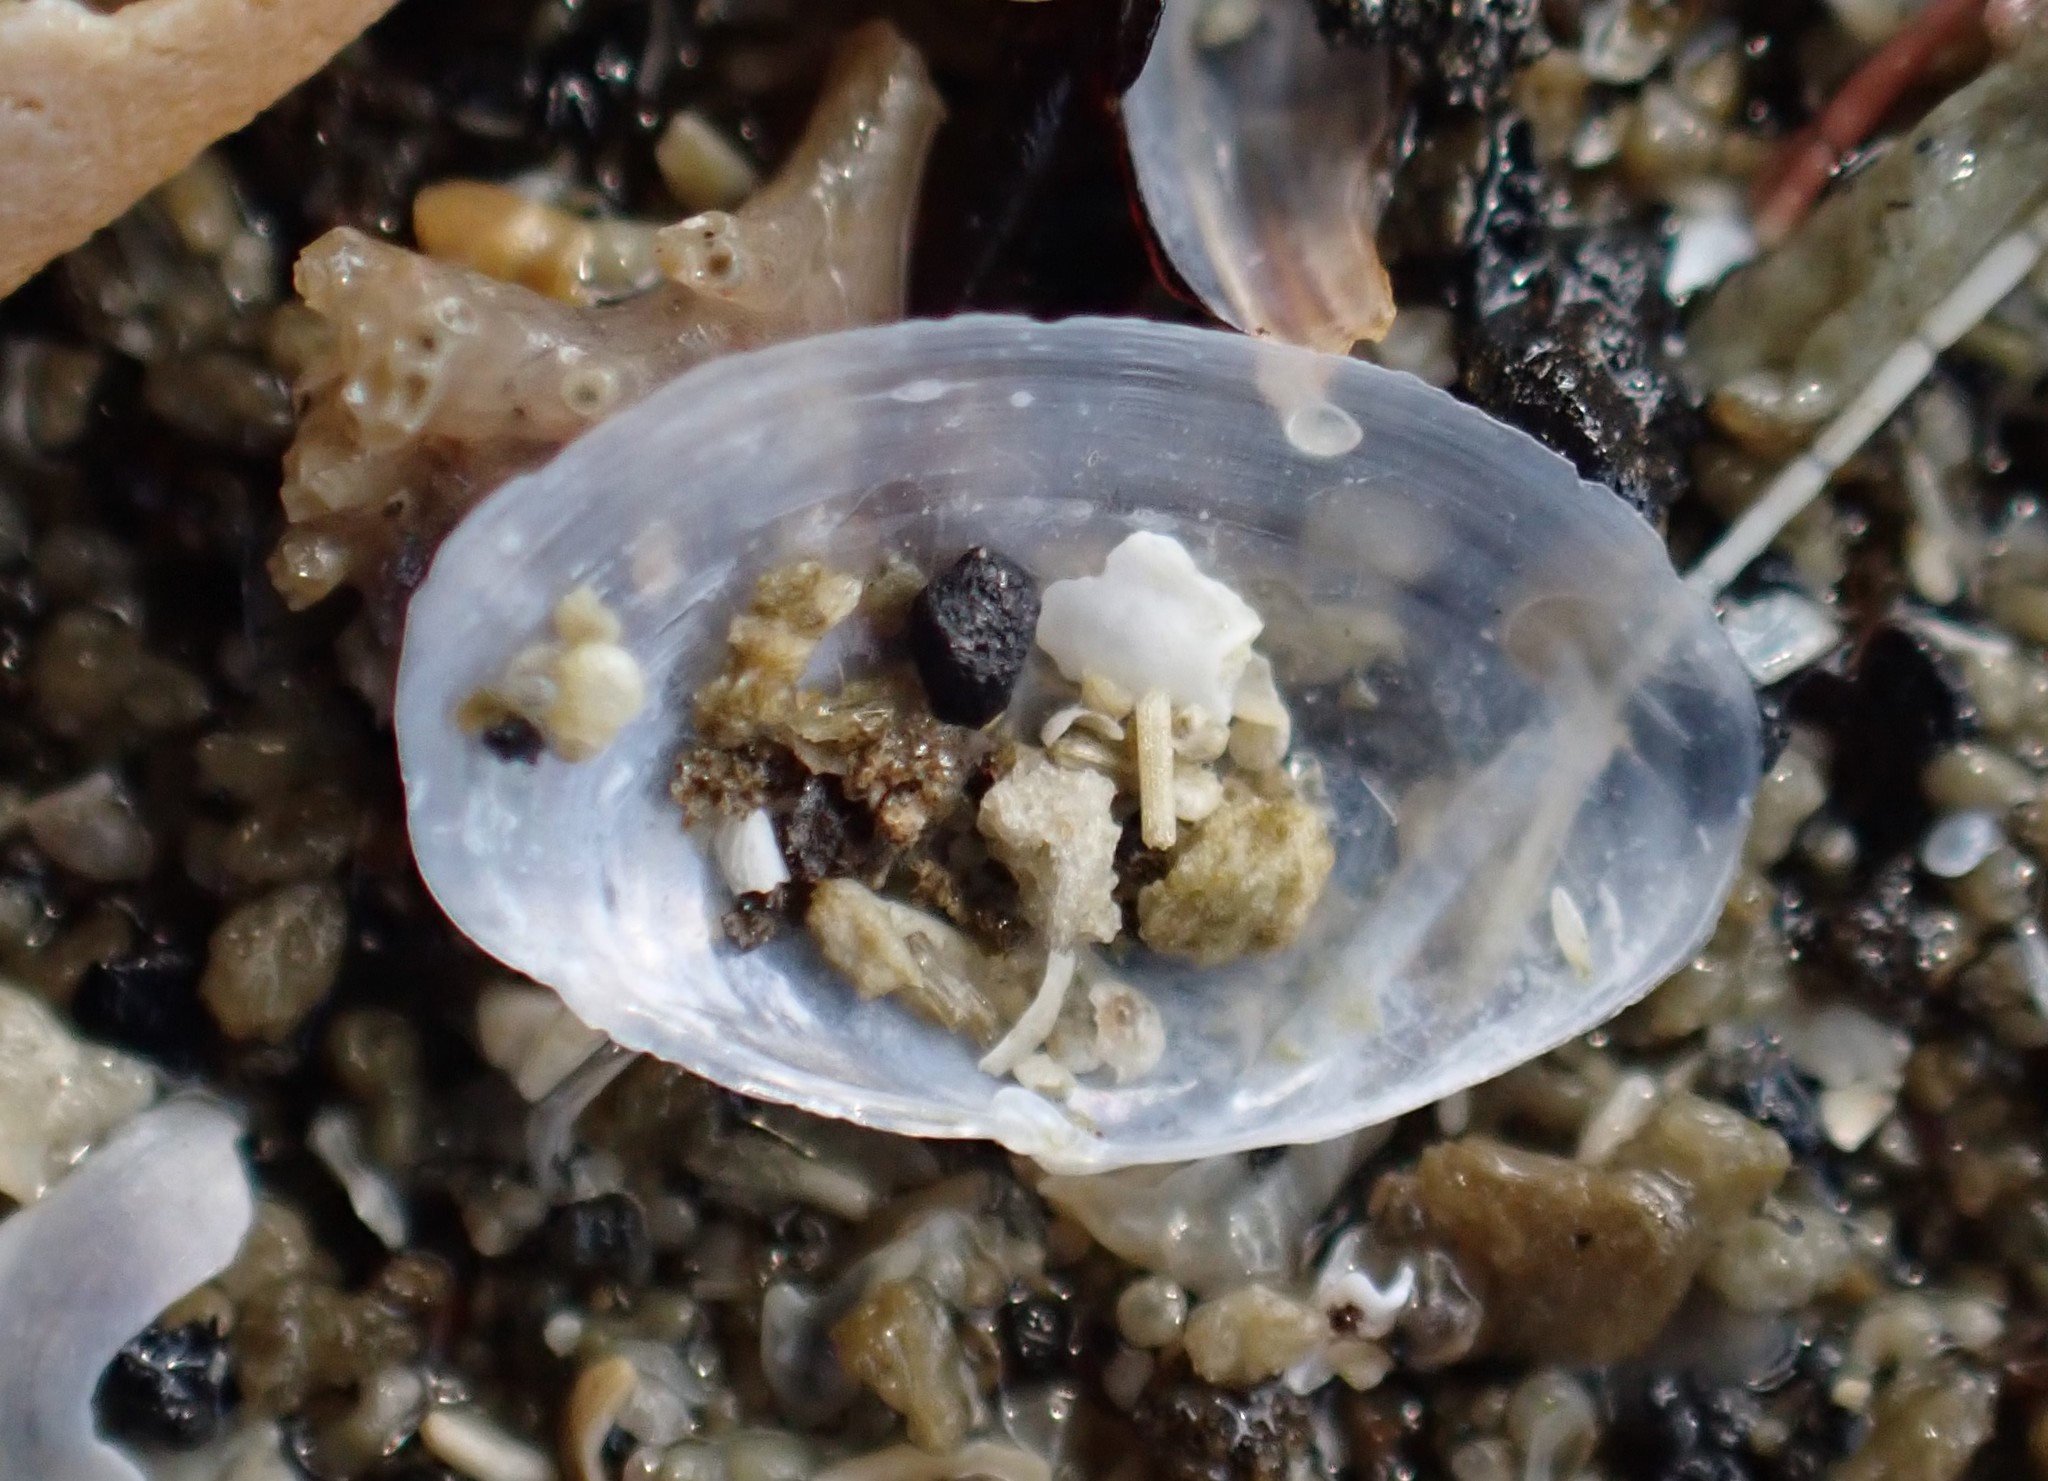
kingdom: Animalia
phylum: Mollusca
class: Bivalvia
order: Cardiida
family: Semelidae
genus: Theora
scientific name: Theora lubrica
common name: Asian semele
